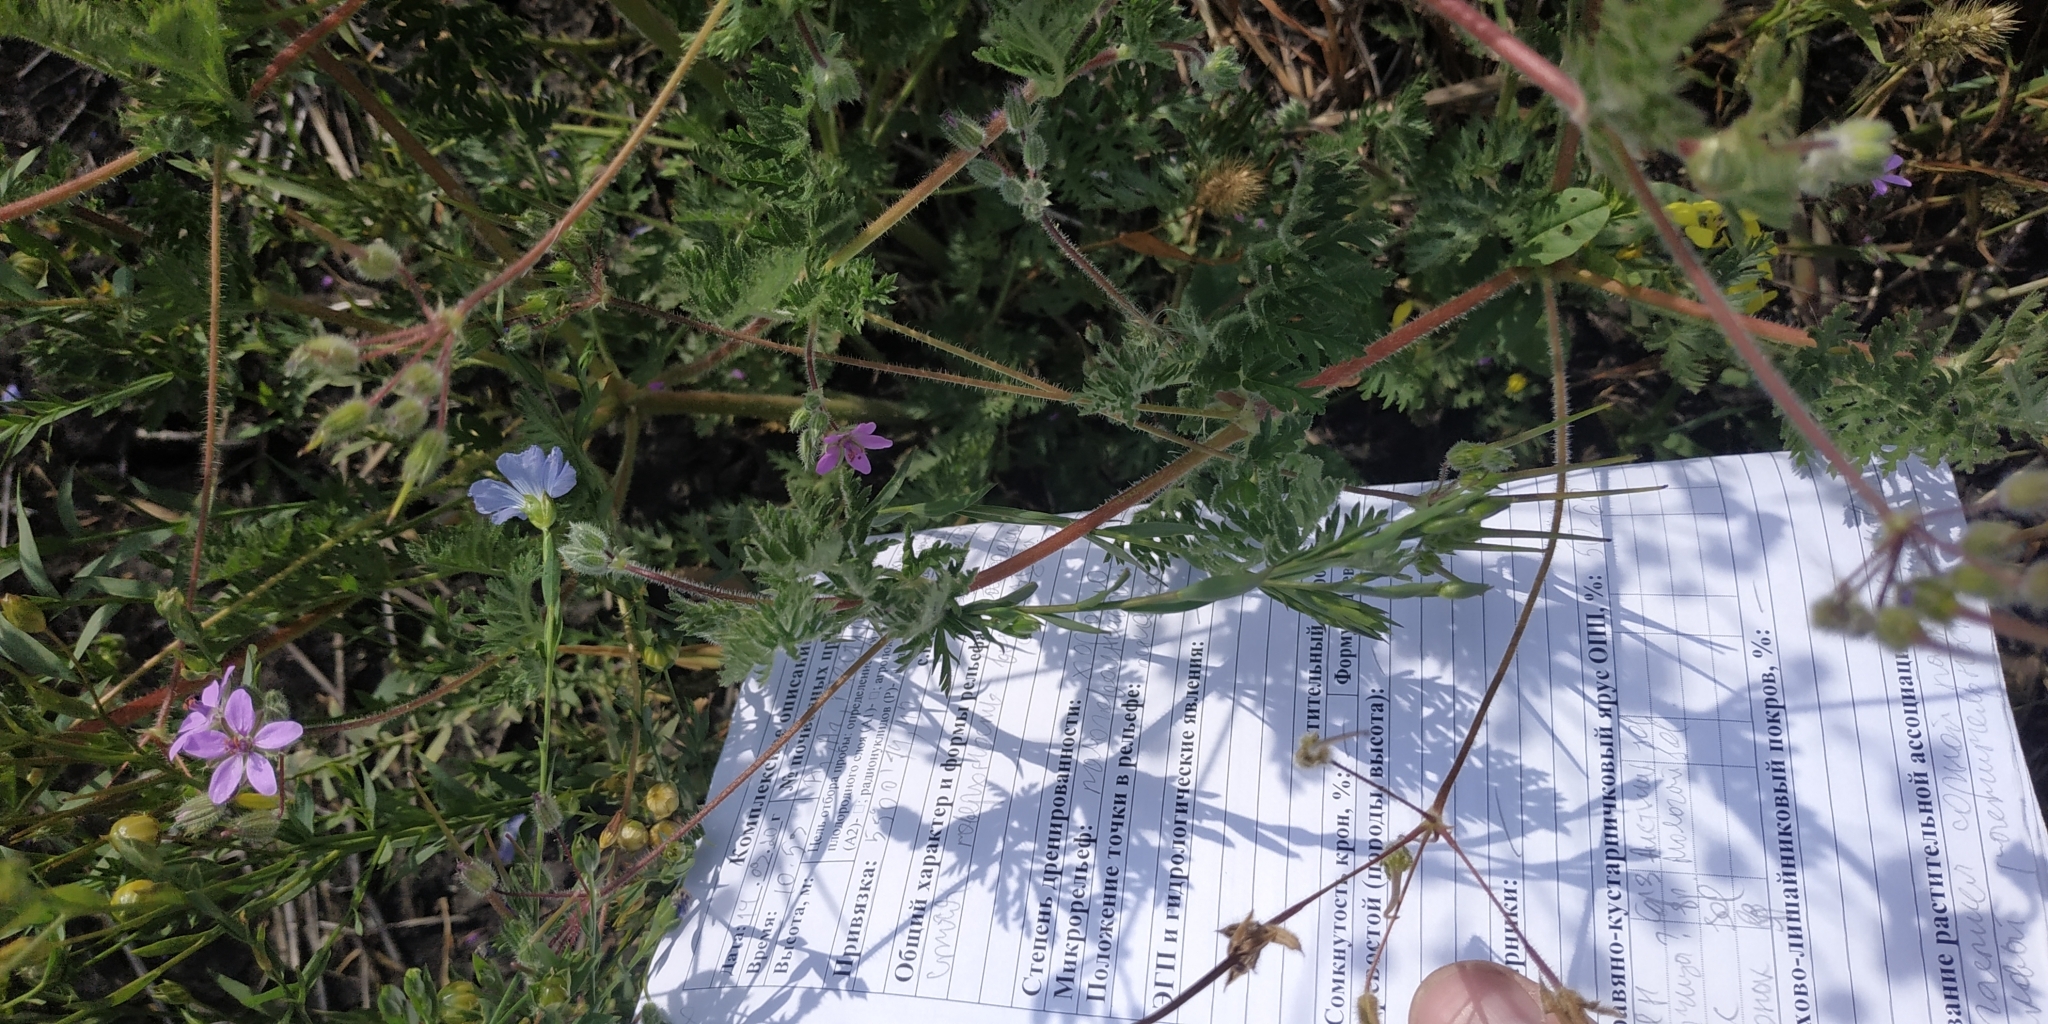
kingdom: Plantae
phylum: Tracheophyta
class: Magnoliopsida
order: Geraniales
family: Geraniaceae
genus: Erodium
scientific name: Erodium cicutarium
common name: Common stork's-bill
